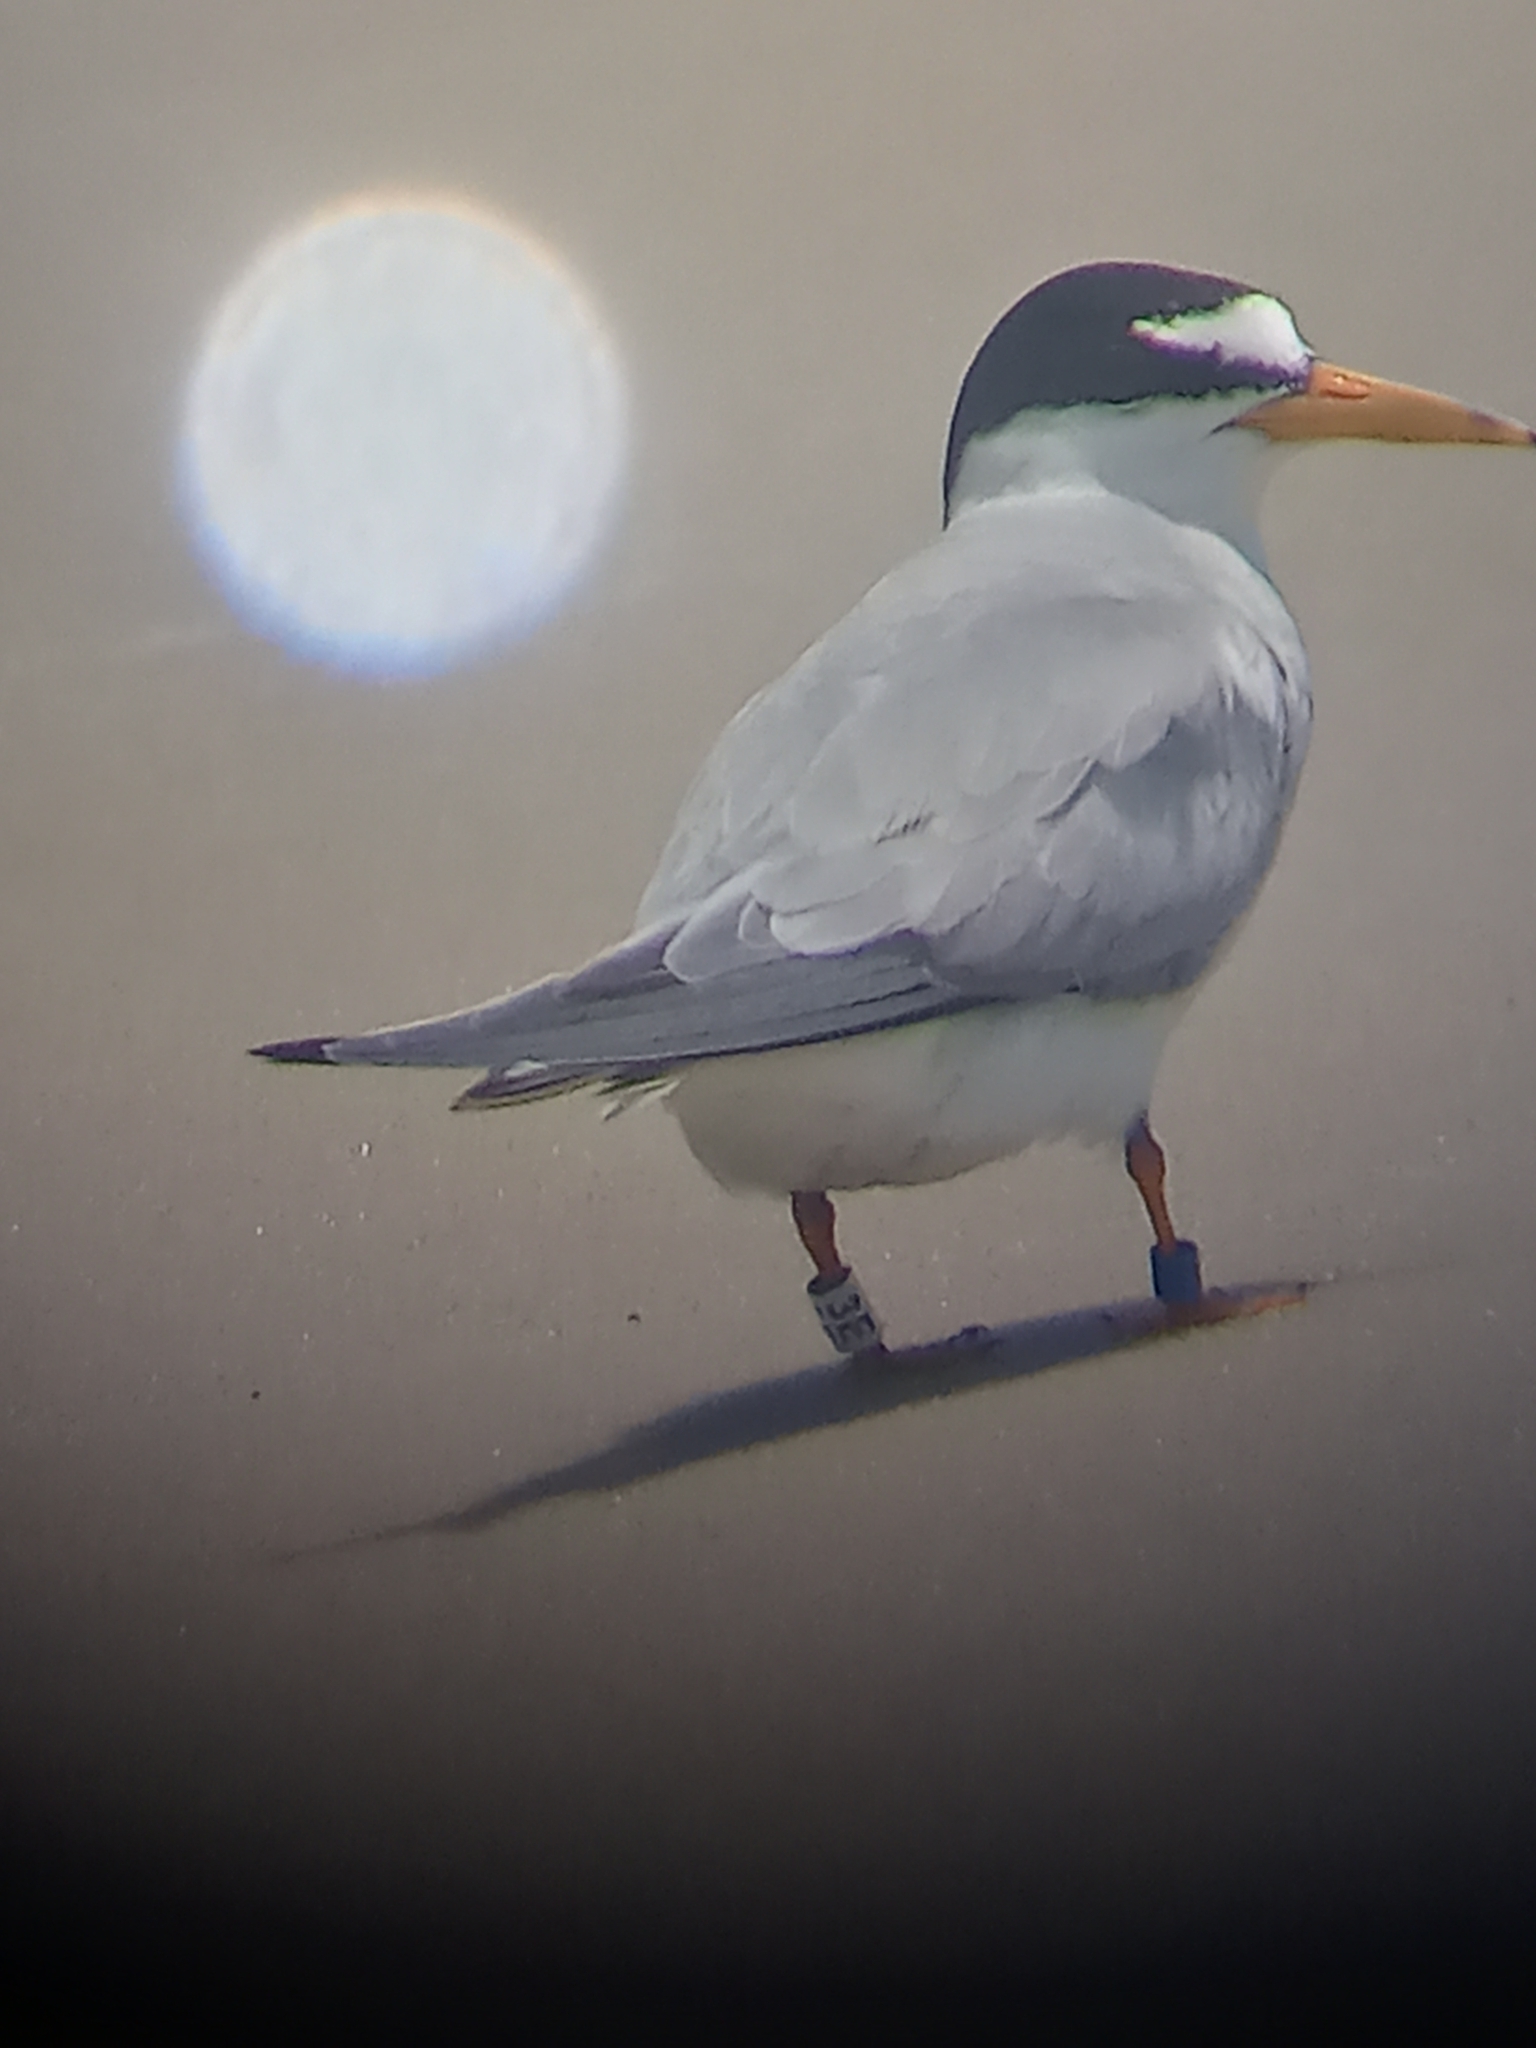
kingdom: Animalia
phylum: Chordata
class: Aves
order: Charadriiformes
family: Laridae
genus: Sternula
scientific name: Sternula antillarum
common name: Least tern
